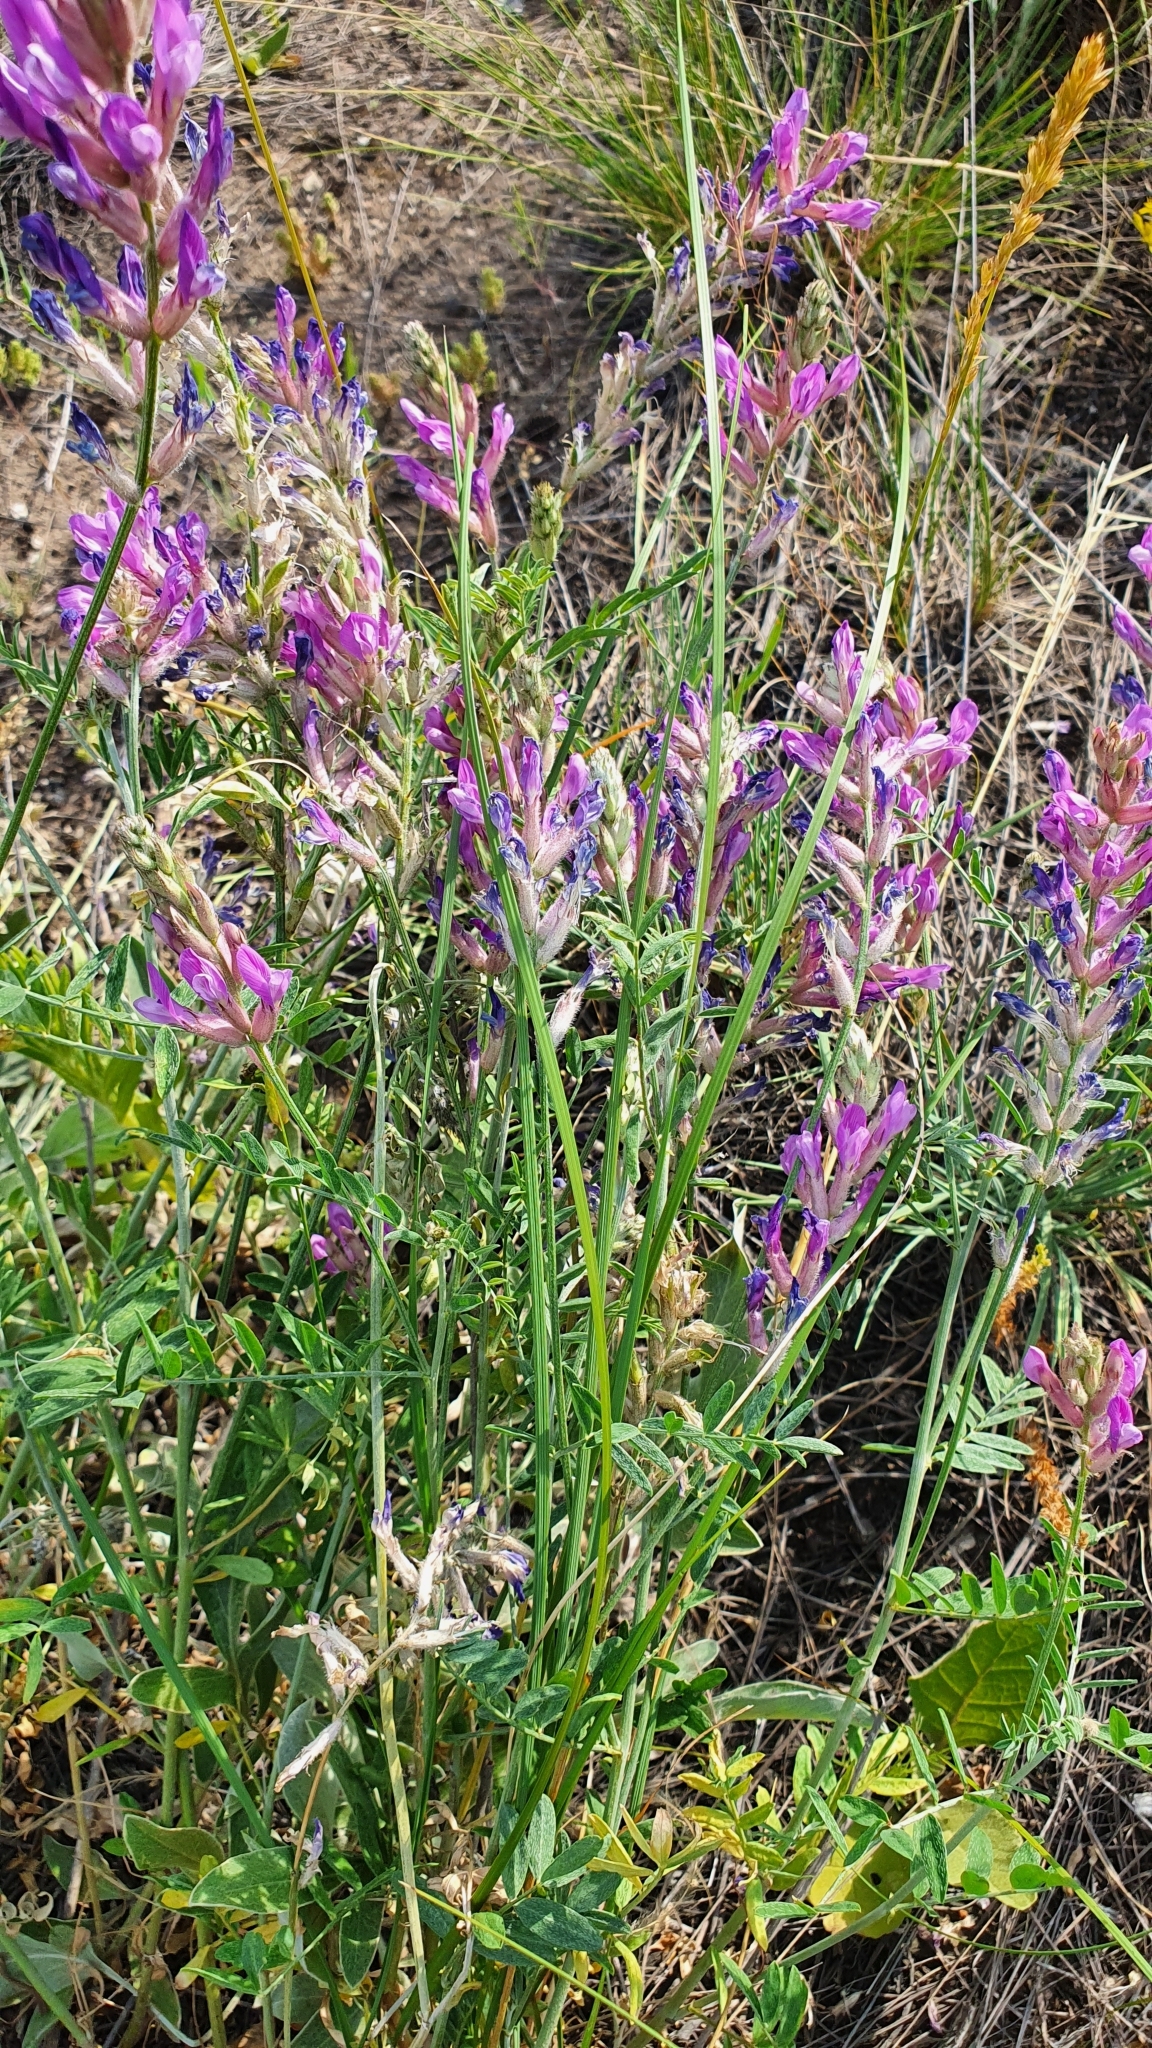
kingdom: Plantae
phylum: Tracheophyta
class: Magnoliopsida
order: Fabales
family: Fabaceae
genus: Astragalus
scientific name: Astragalus varius
